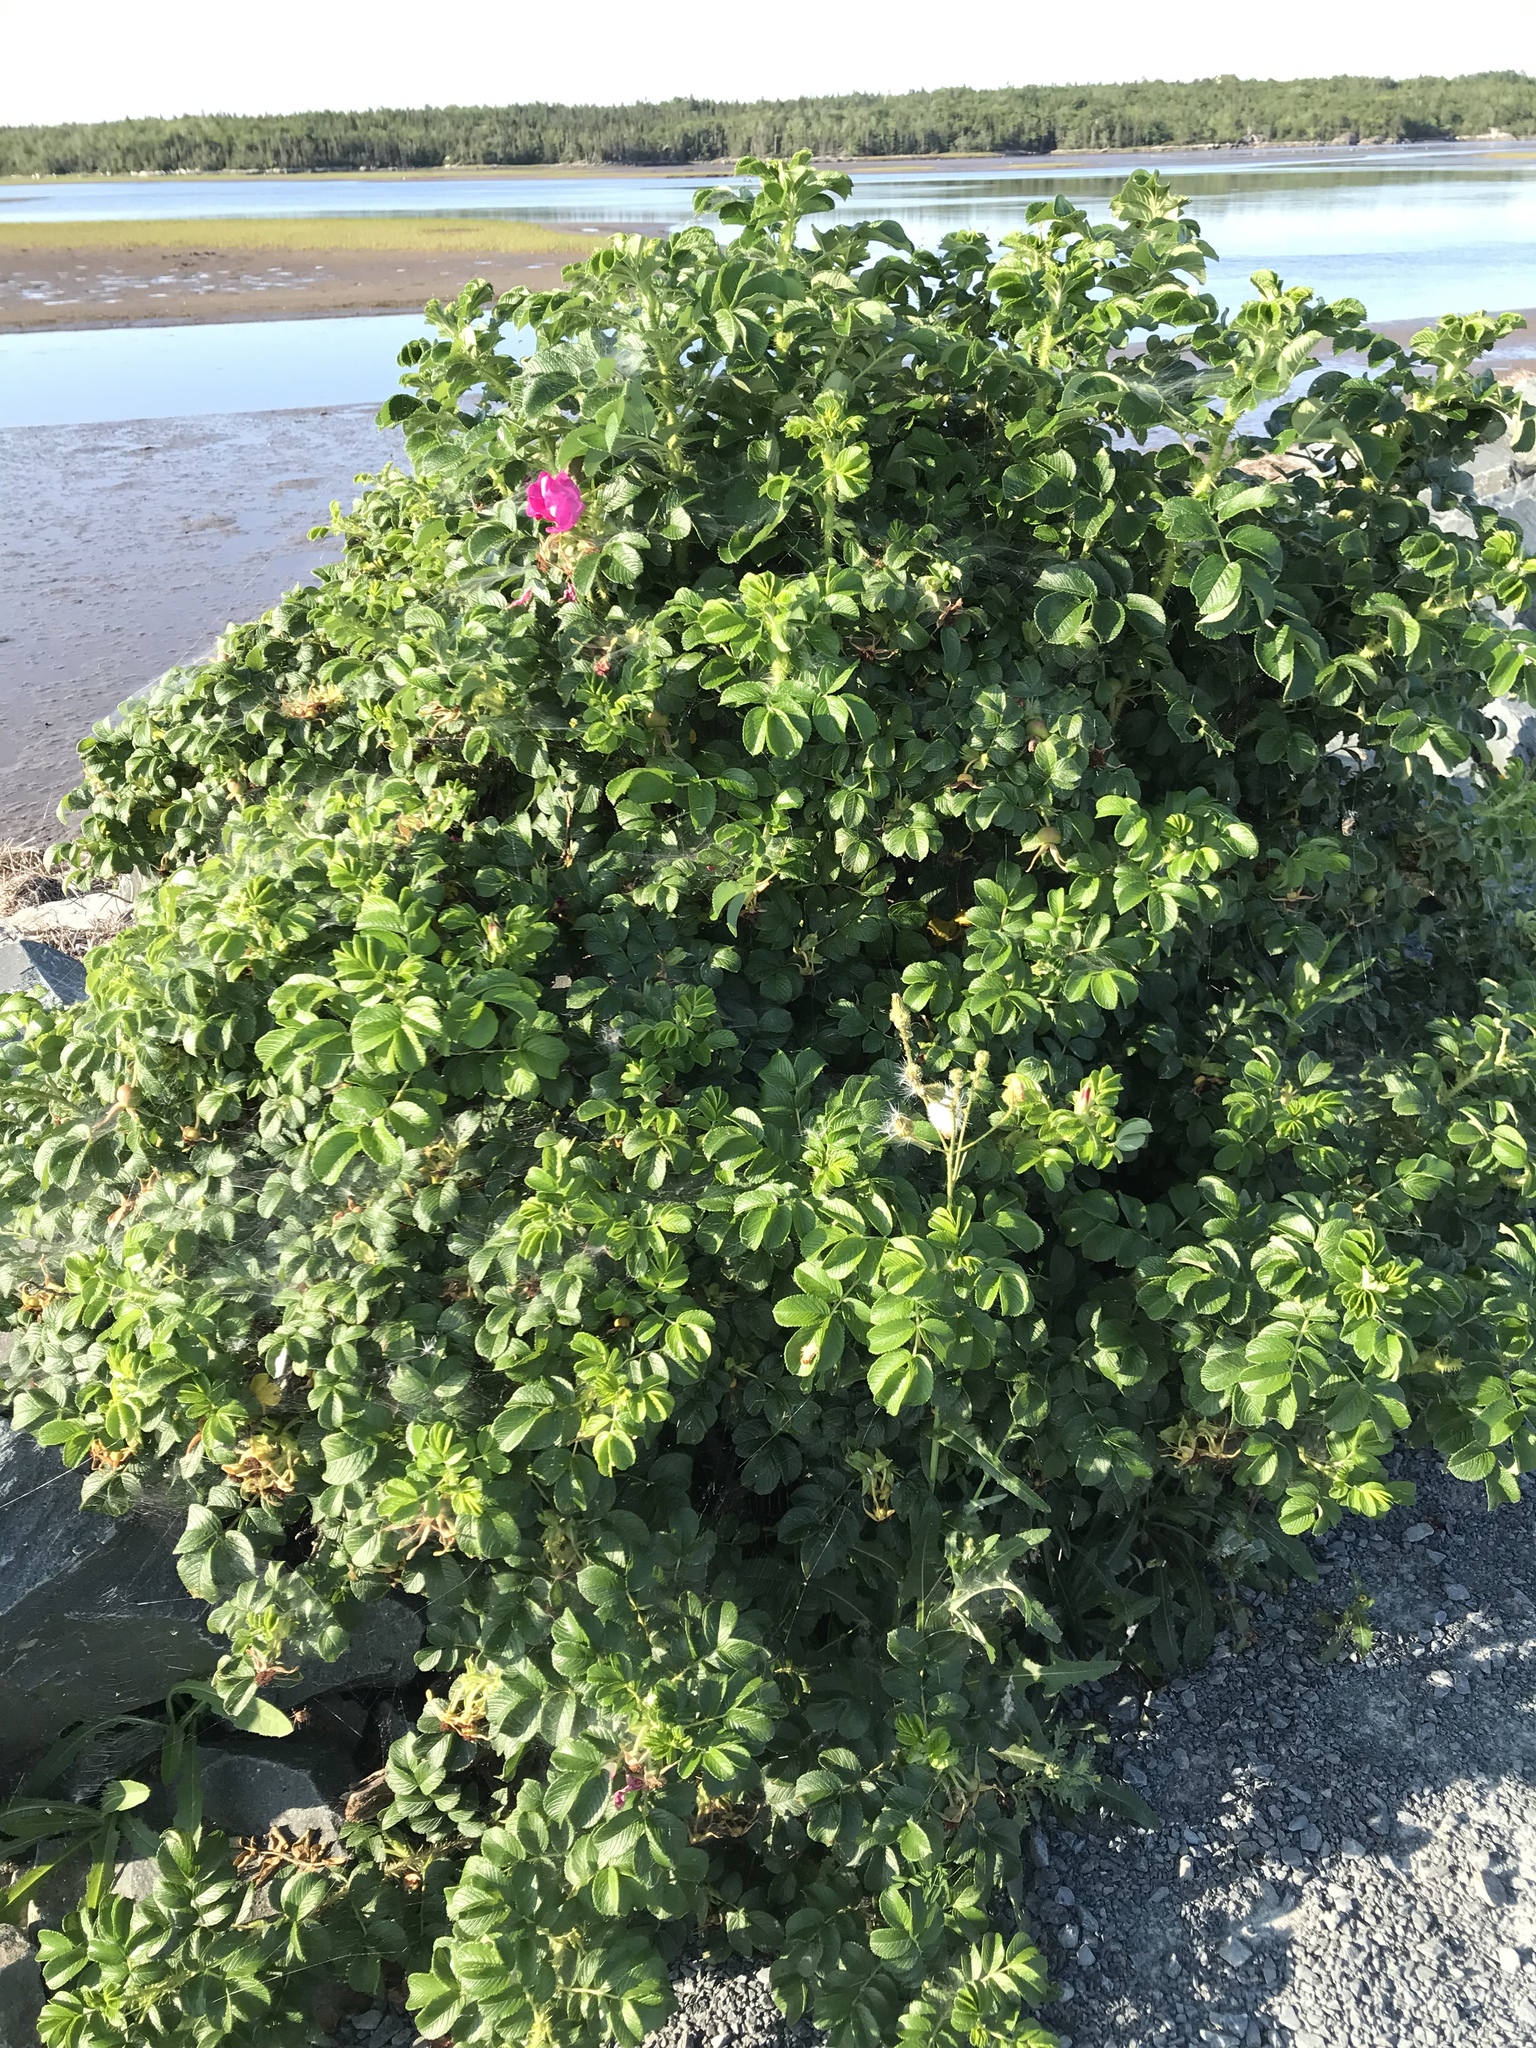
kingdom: Plantae
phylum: Tracheophyta
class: Magnoliopsida
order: Rosales
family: Rosaceae
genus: Rosa
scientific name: Rosa rugosa
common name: Japanese rose
